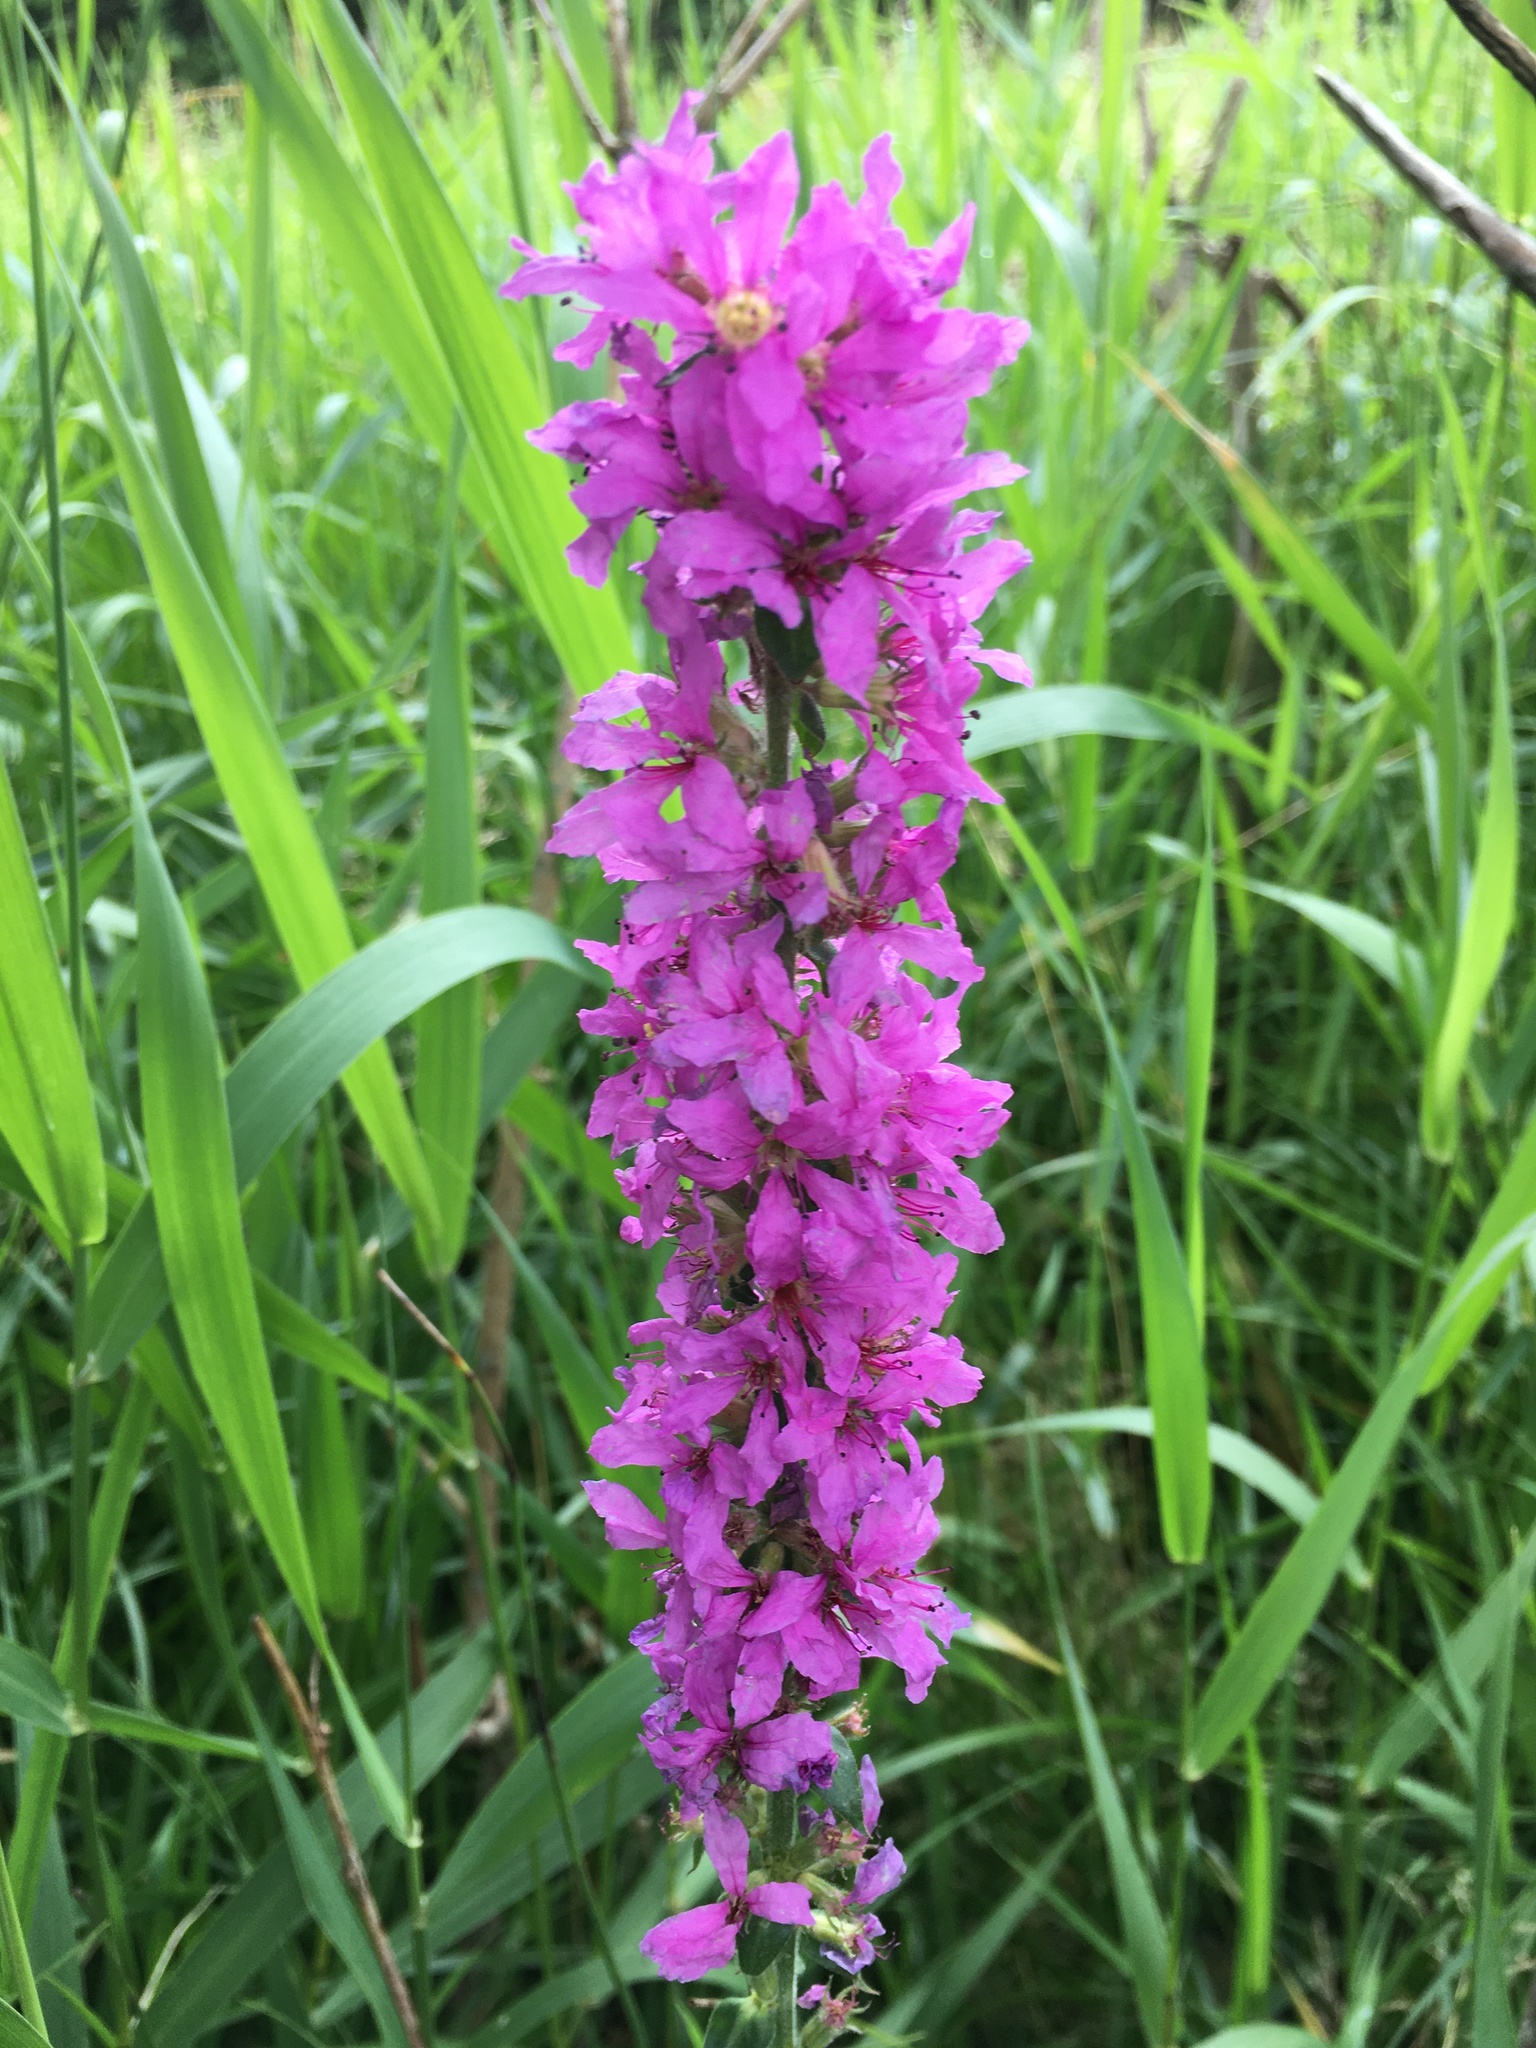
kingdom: Plantae
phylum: Tracheophyta
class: Magnoliopsida
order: Myrtales
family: Lythraceae
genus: Lythrum
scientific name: Lythrum salicaria
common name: Purple loosestrife
